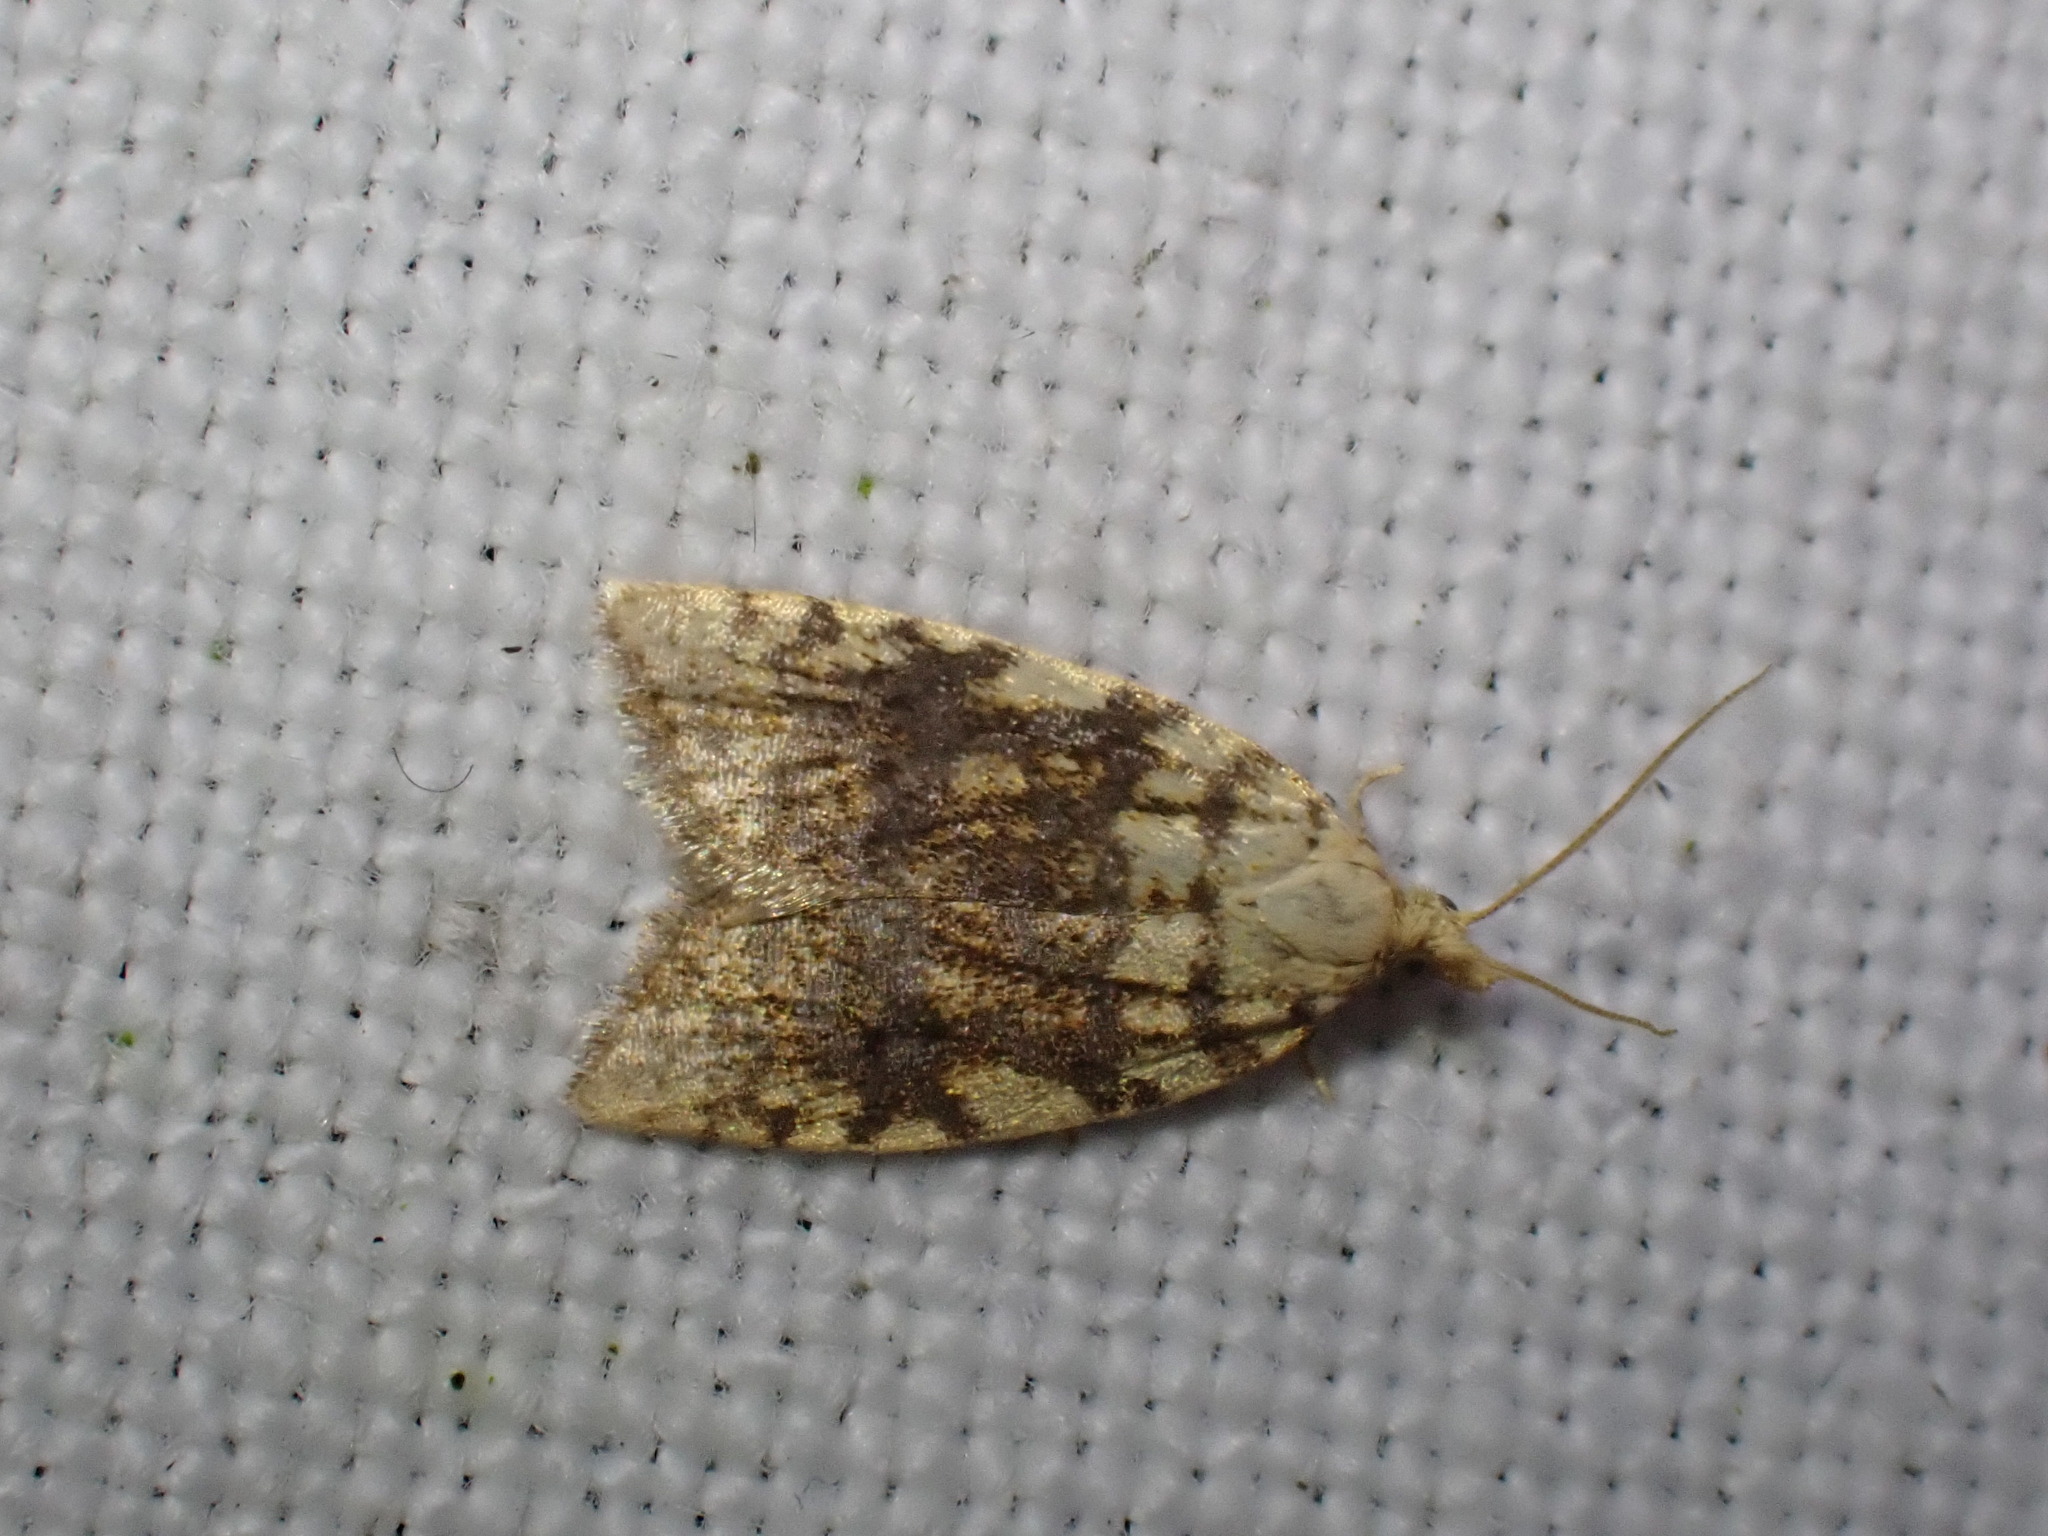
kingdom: Animalia
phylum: Arthropoda
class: Insecta
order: Lepidoptera
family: Tortricidae
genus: Aleimma
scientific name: Aleimma loeflingiana
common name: Yellow oak button
